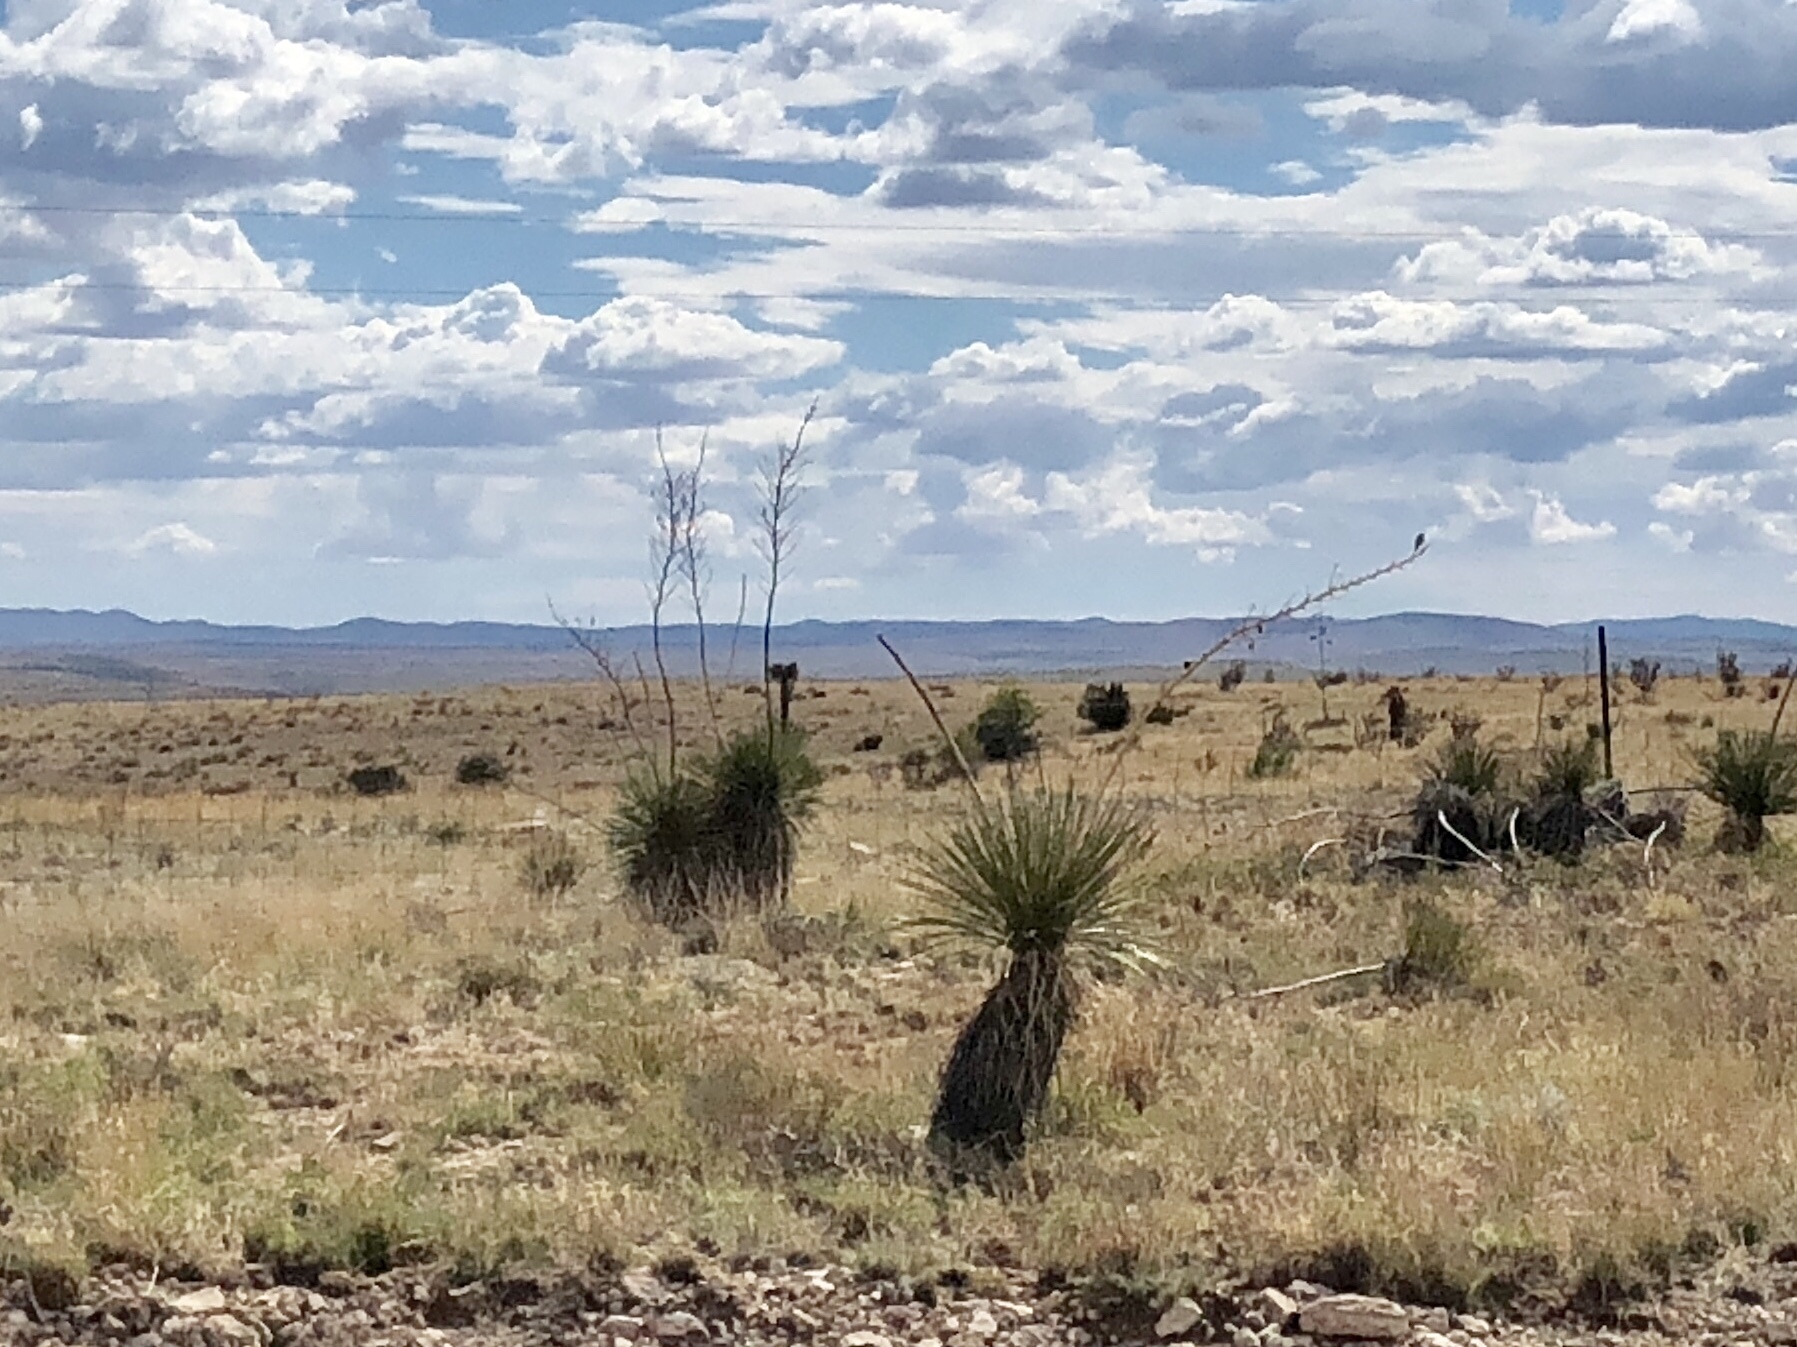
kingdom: Plantae
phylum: Tracheophyta
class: Liliopsida
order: Asparagales
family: Asparagaceae
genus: Yucca
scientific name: Yucca elata
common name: Palmella
